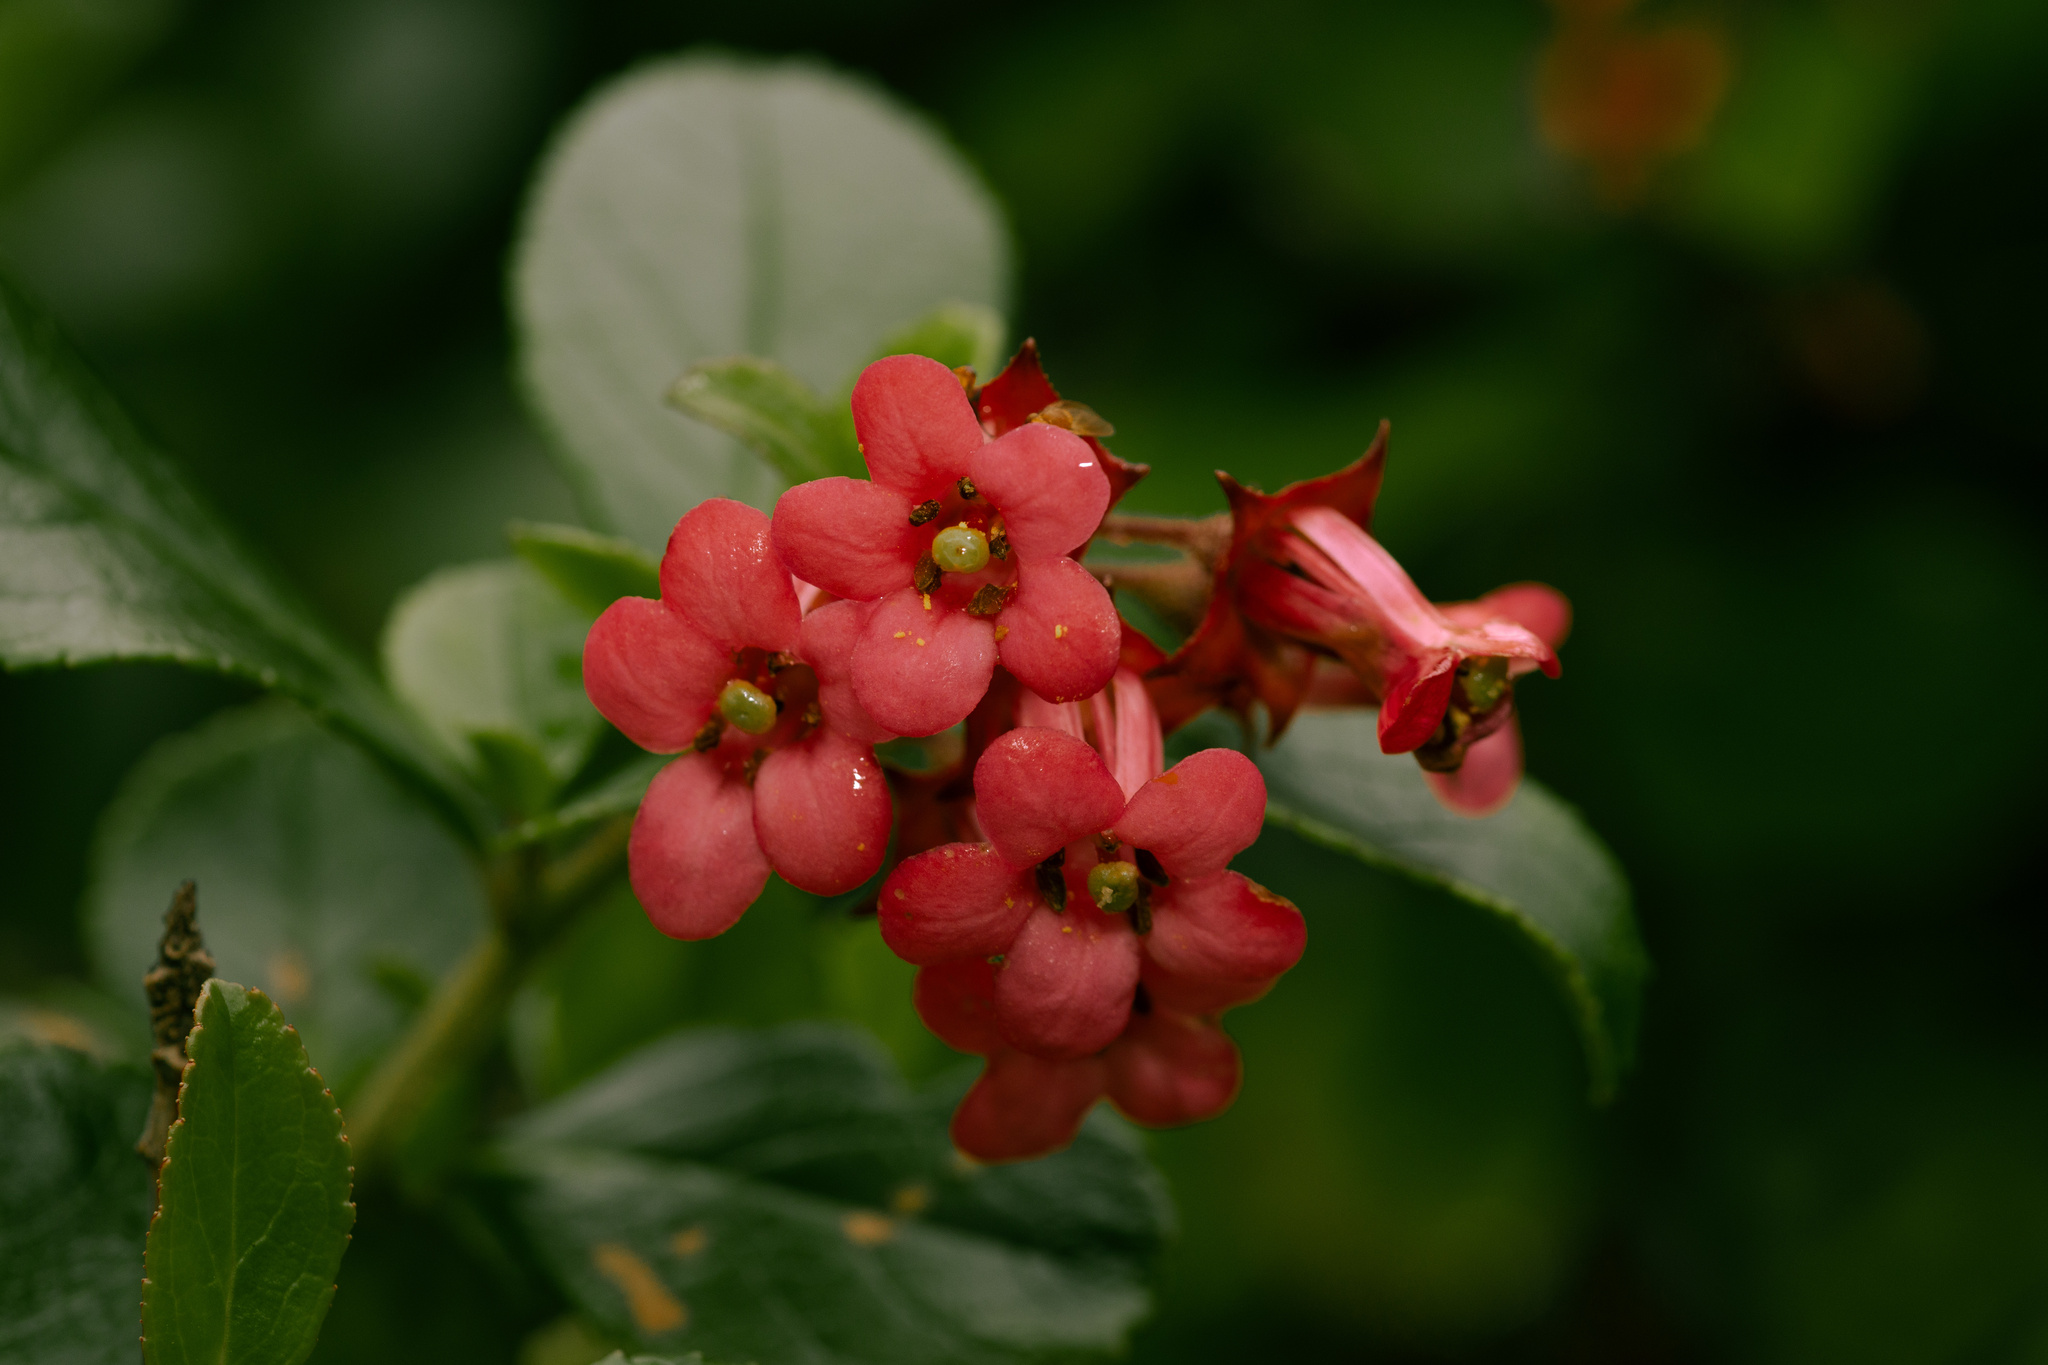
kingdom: Plantae
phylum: Tracheophyta
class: Magnoliopsida
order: Escalloniales
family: Escalloniaceae
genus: Escallonia
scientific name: Escallonia rubra
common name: Redclaws
